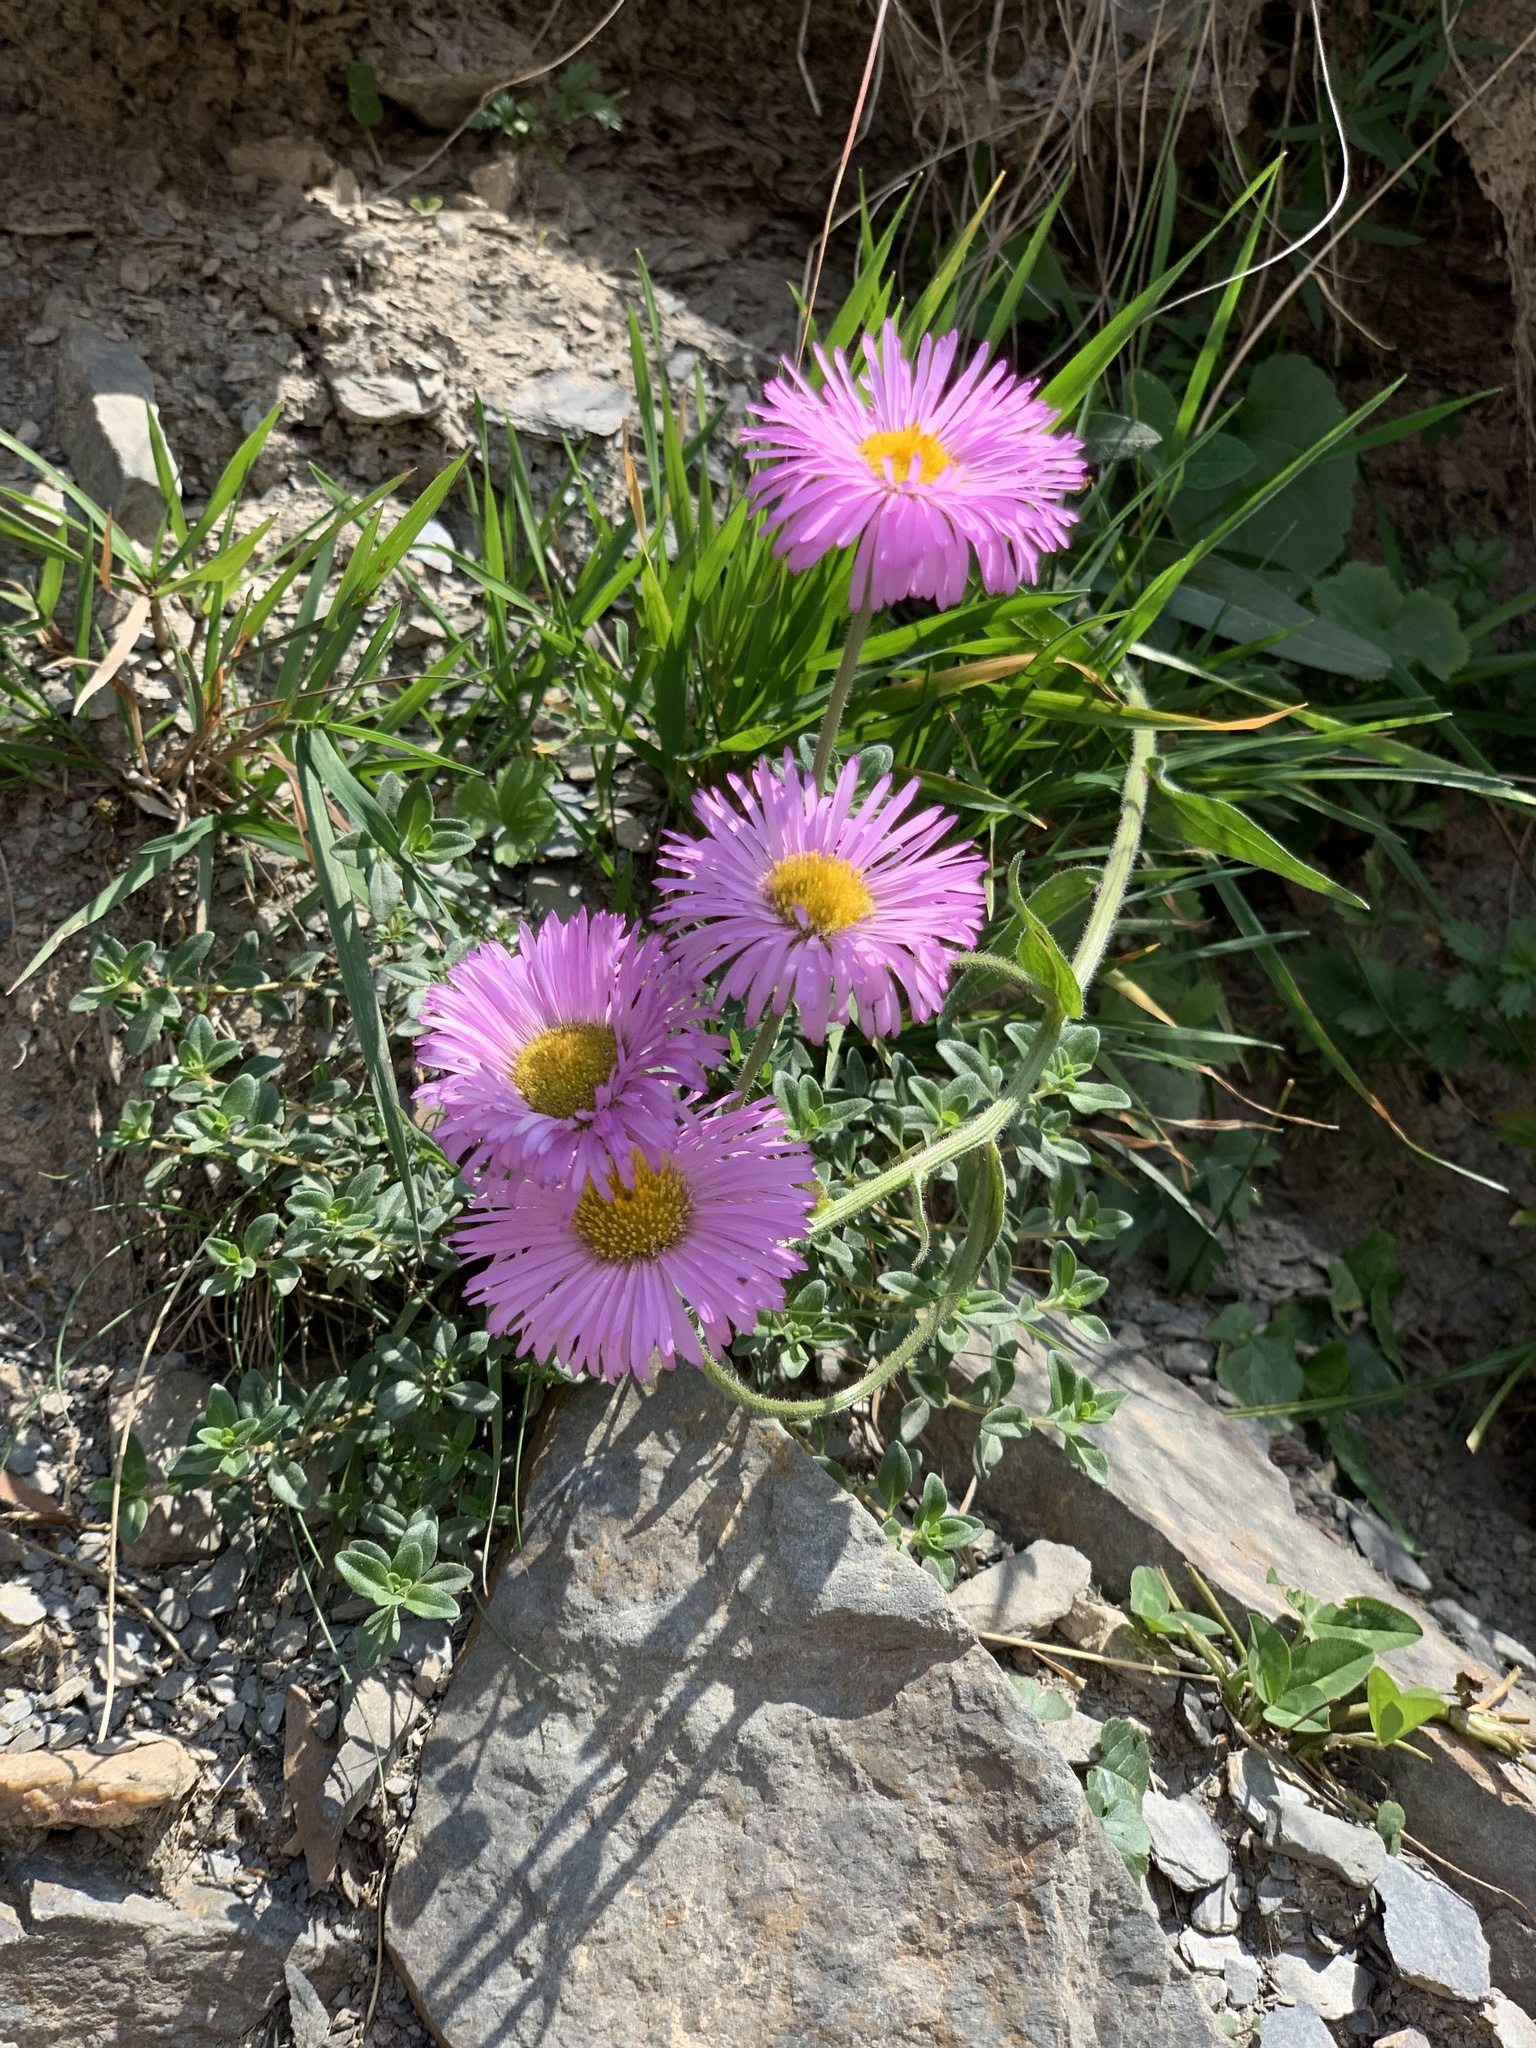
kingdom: Plantae
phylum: Tracheophyta
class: Magnoliopsida
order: Asterales
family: Asteraceae
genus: Erigeron
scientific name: Erigeron caucasicus
